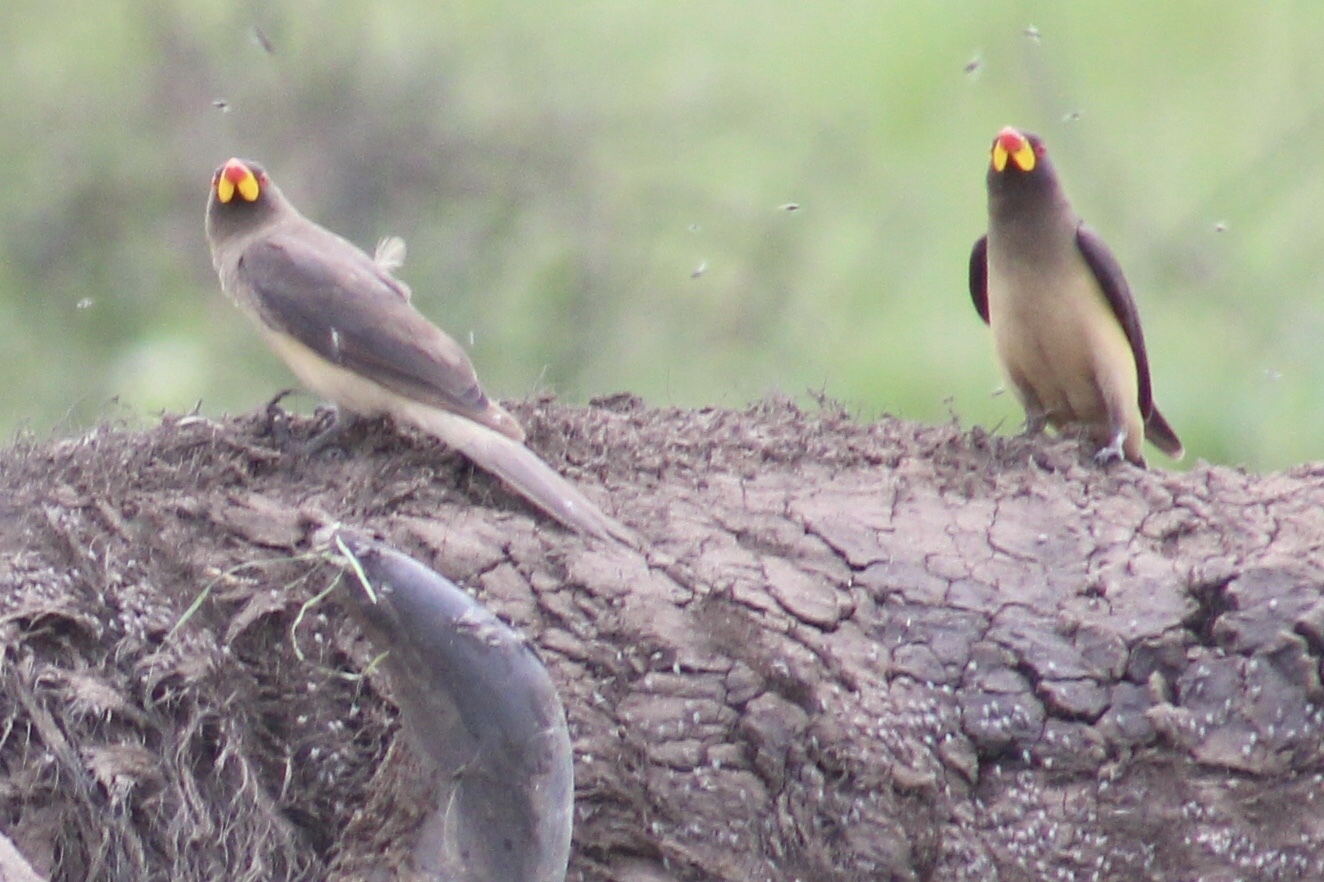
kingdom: Animalia
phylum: Chordata
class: Aves
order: Passeriformes
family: Buphagidae
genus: Buphagus
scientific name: Buphagus africanus
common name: Yellow-billed oxpecker
